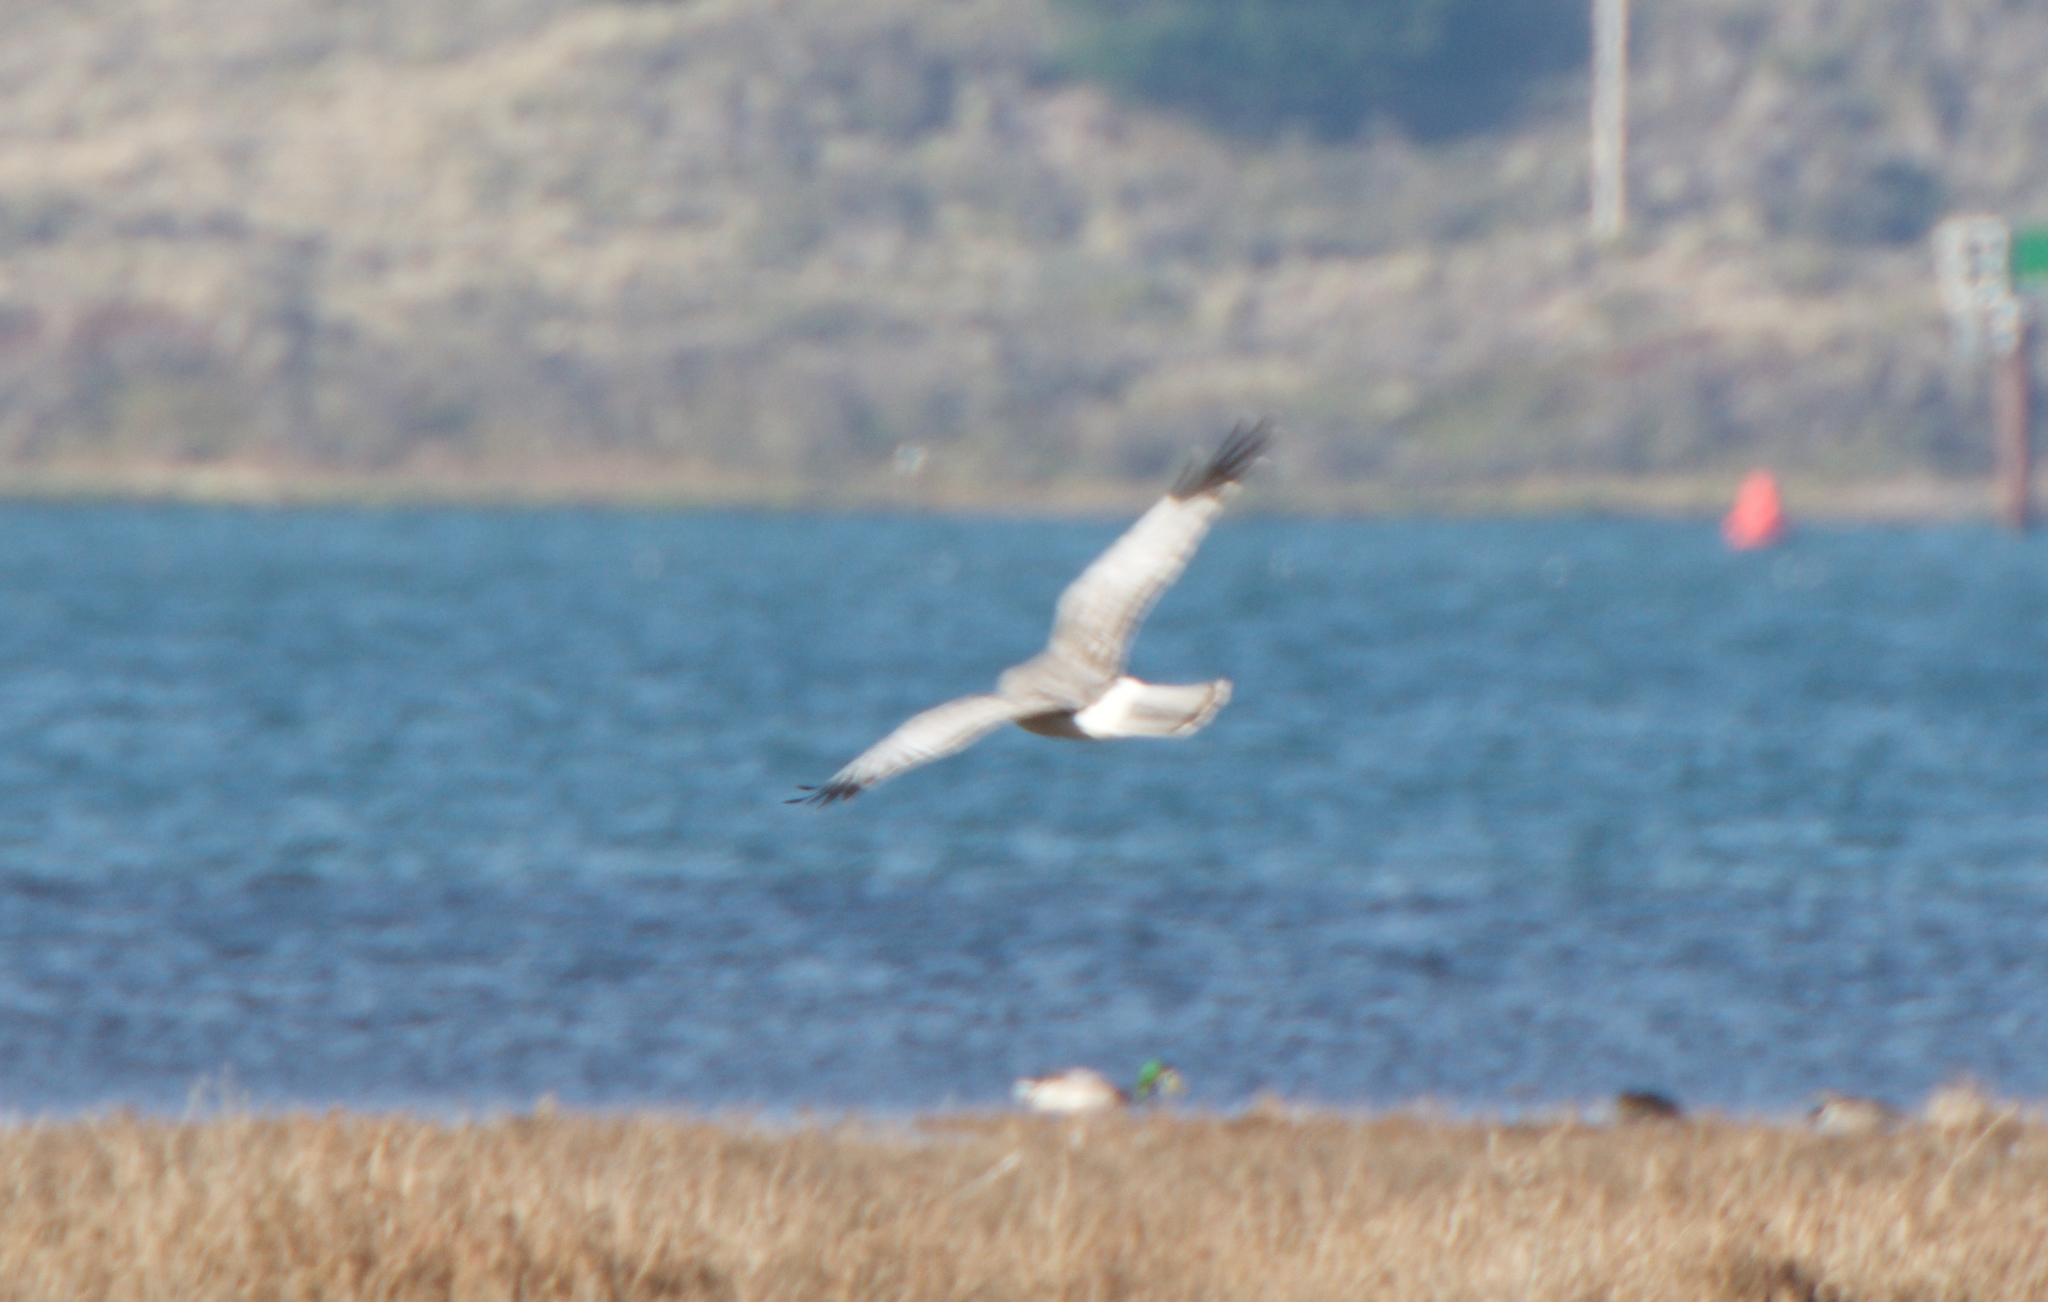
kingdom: Animalia
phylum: Chordata
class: Aves
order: Accipitriformes
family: Accipitridae
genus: Circus
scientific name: Circus cyaneus
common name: Hen harrier
